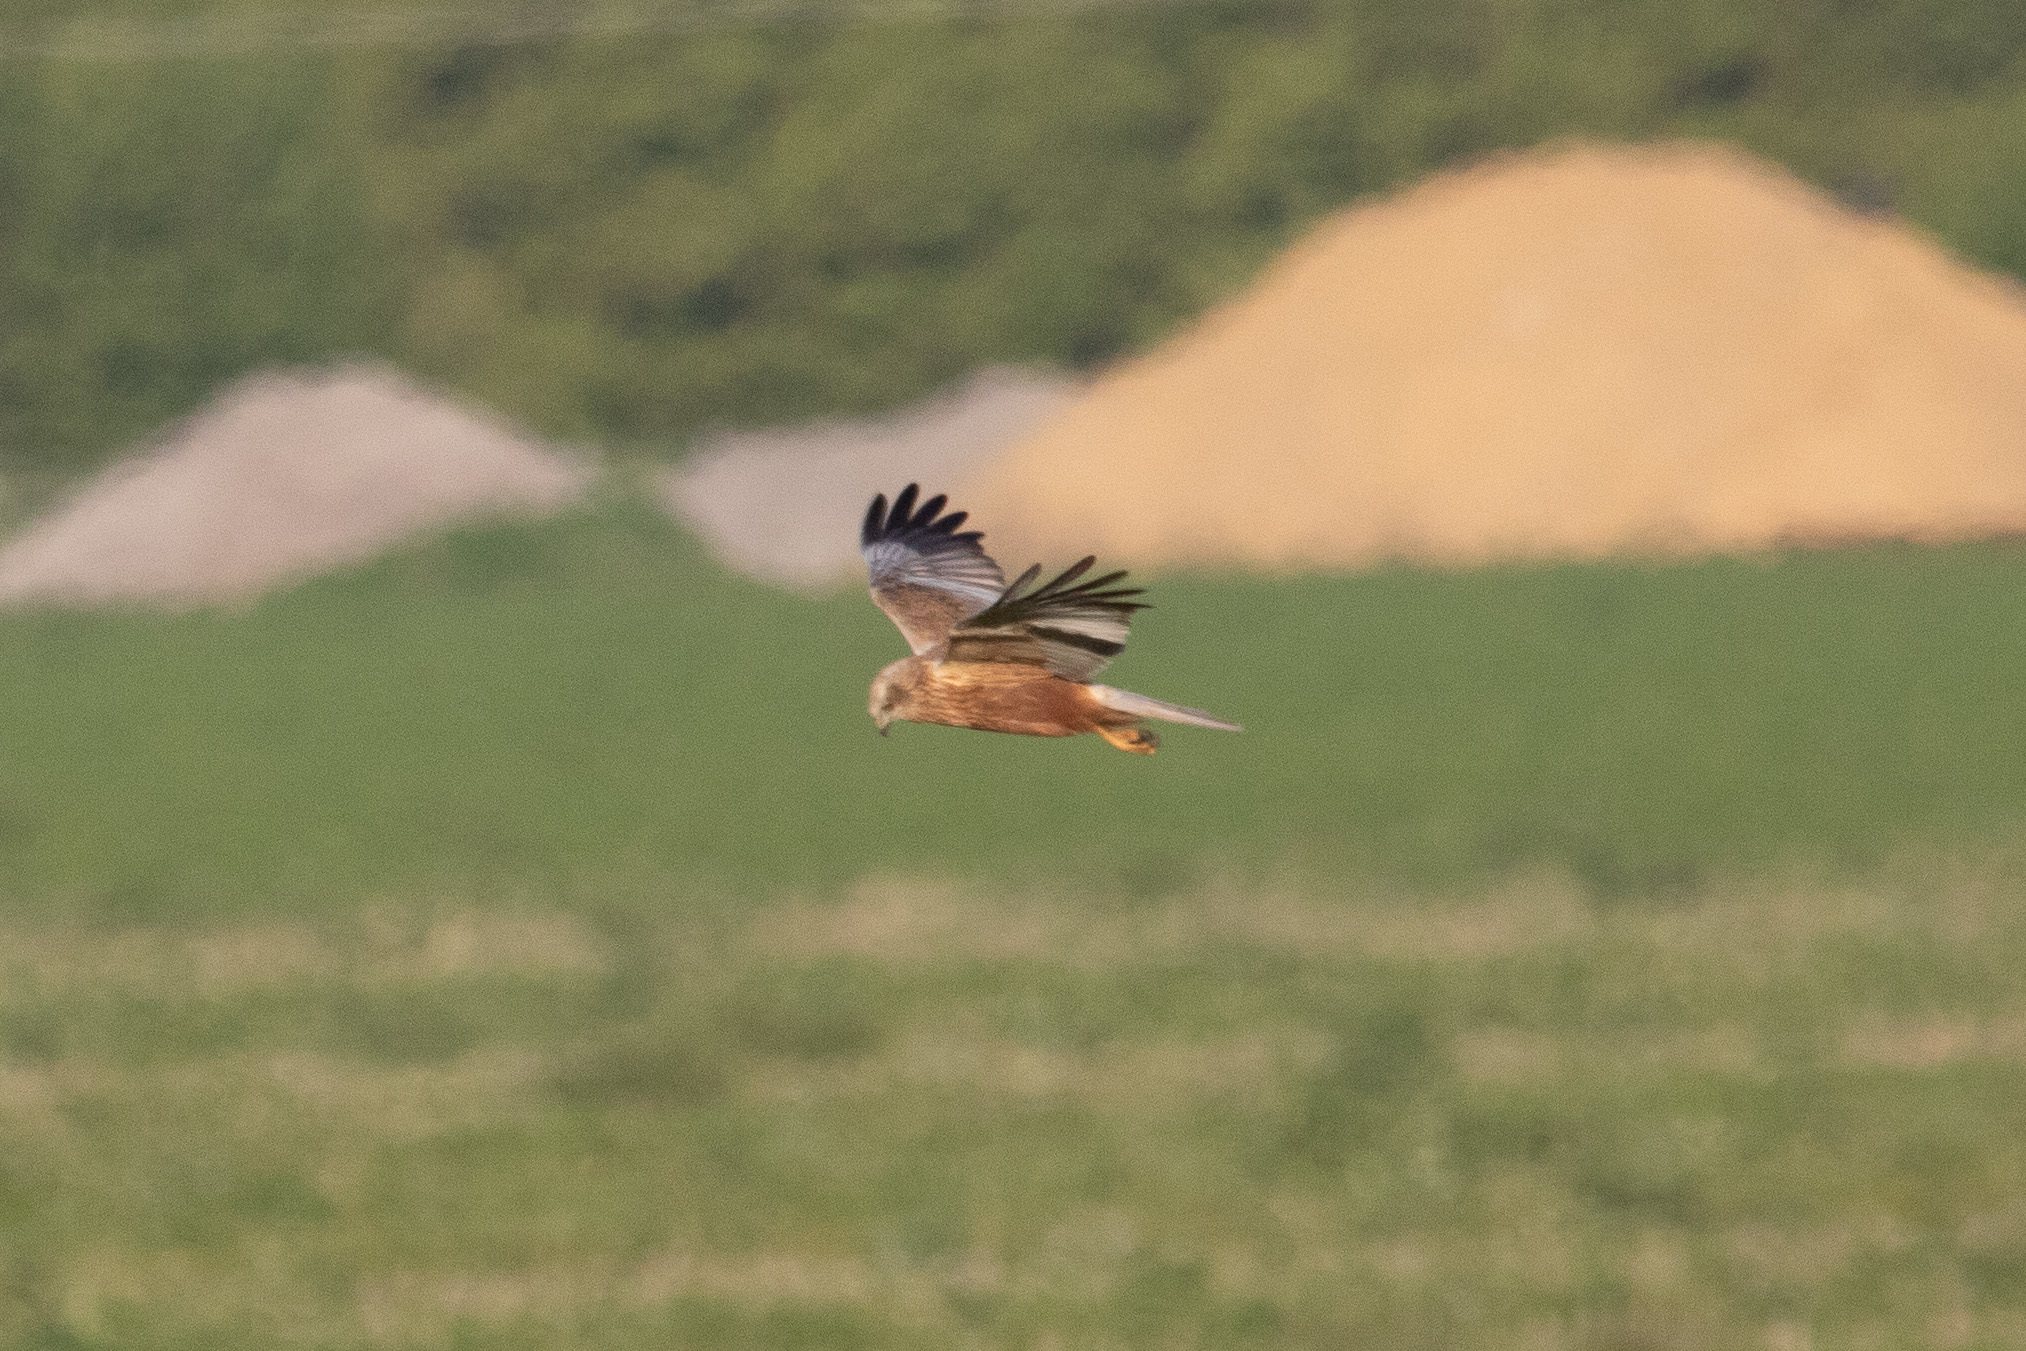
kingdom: Animalia
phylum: Chordata
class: Aves
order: Accipitriformes
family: Accipitridae
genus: Circus
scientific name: Circus aeruginosus
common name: Western marsh harrier
